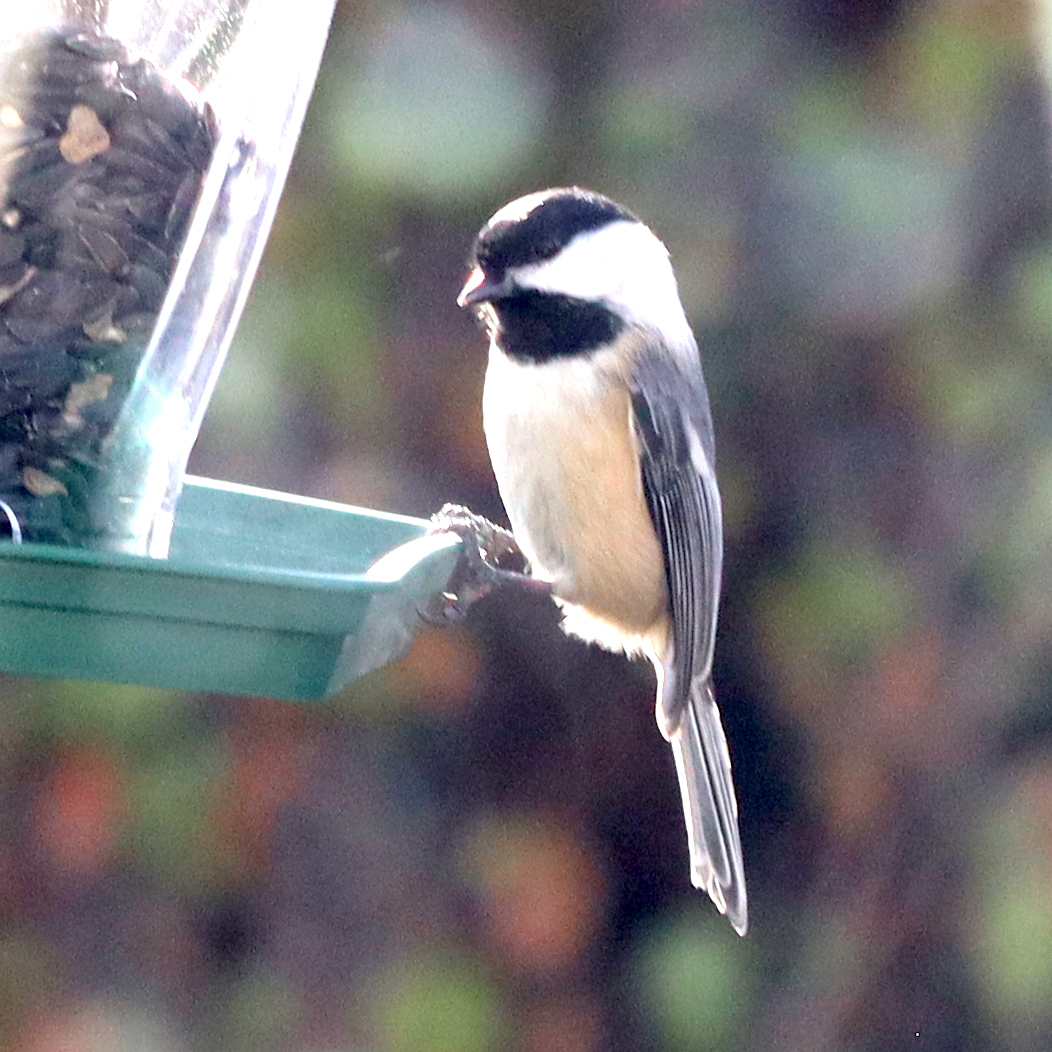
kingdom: Animalia
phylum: Chordata
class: Aves
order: Passeriformes
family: Paridae
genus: Poecile
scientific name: Poecile atricapillus
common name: Black-capped chickadee
